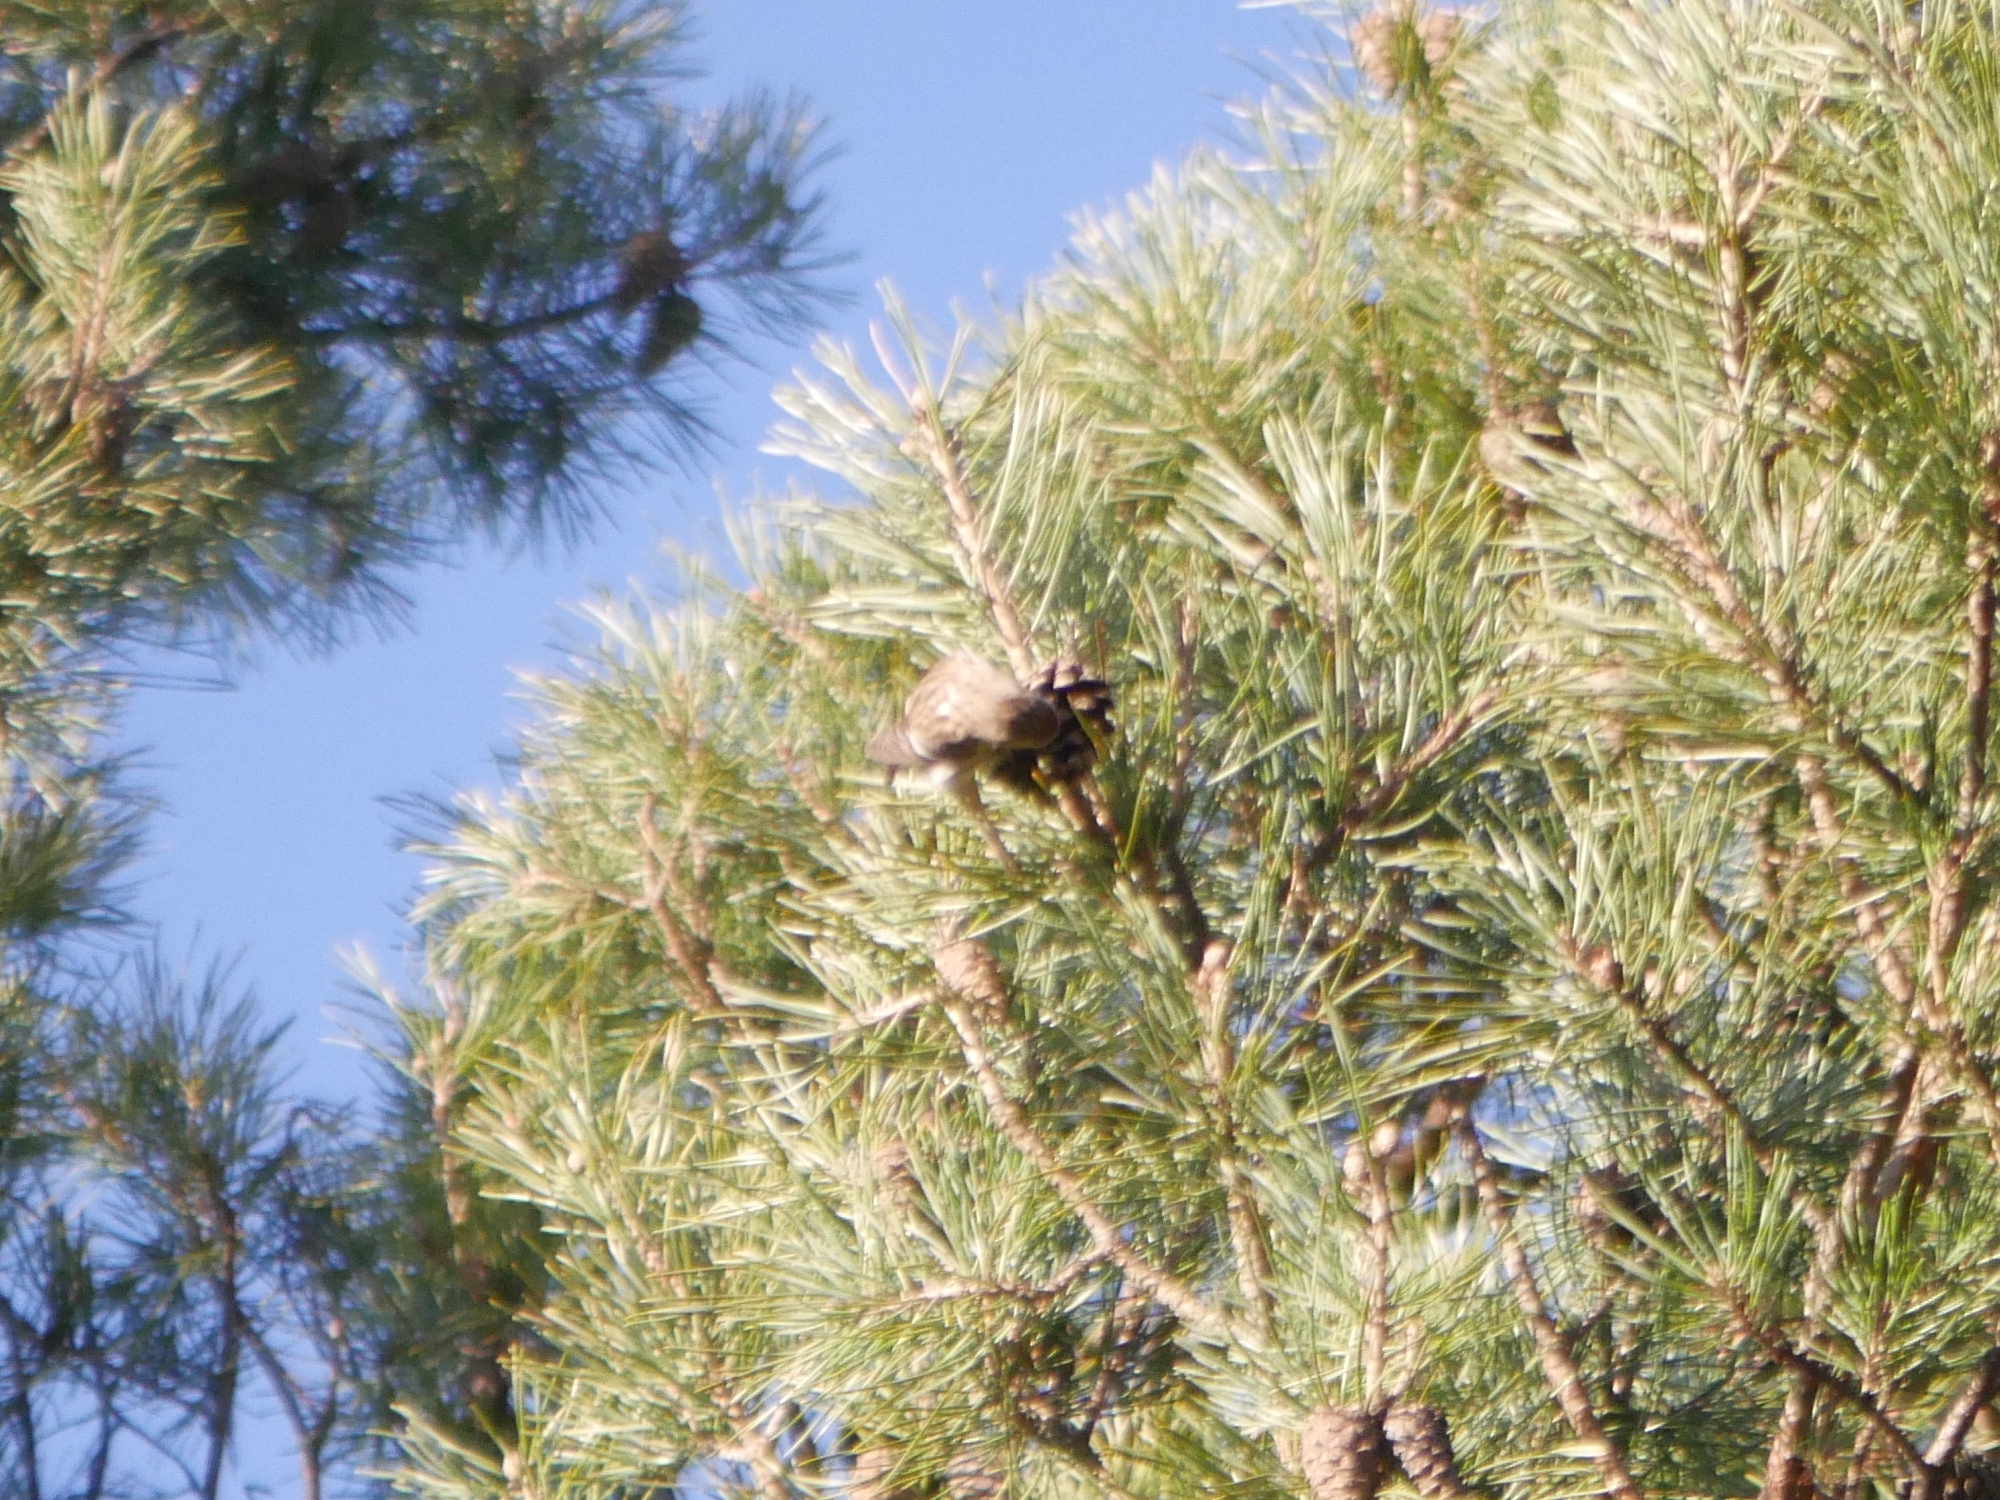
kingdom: Animalia
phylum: Chordata
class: Aves
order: Passeriformes
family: Fringillidae
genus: Acanthis
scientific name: Acanthis flammea
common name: Common redpoll
